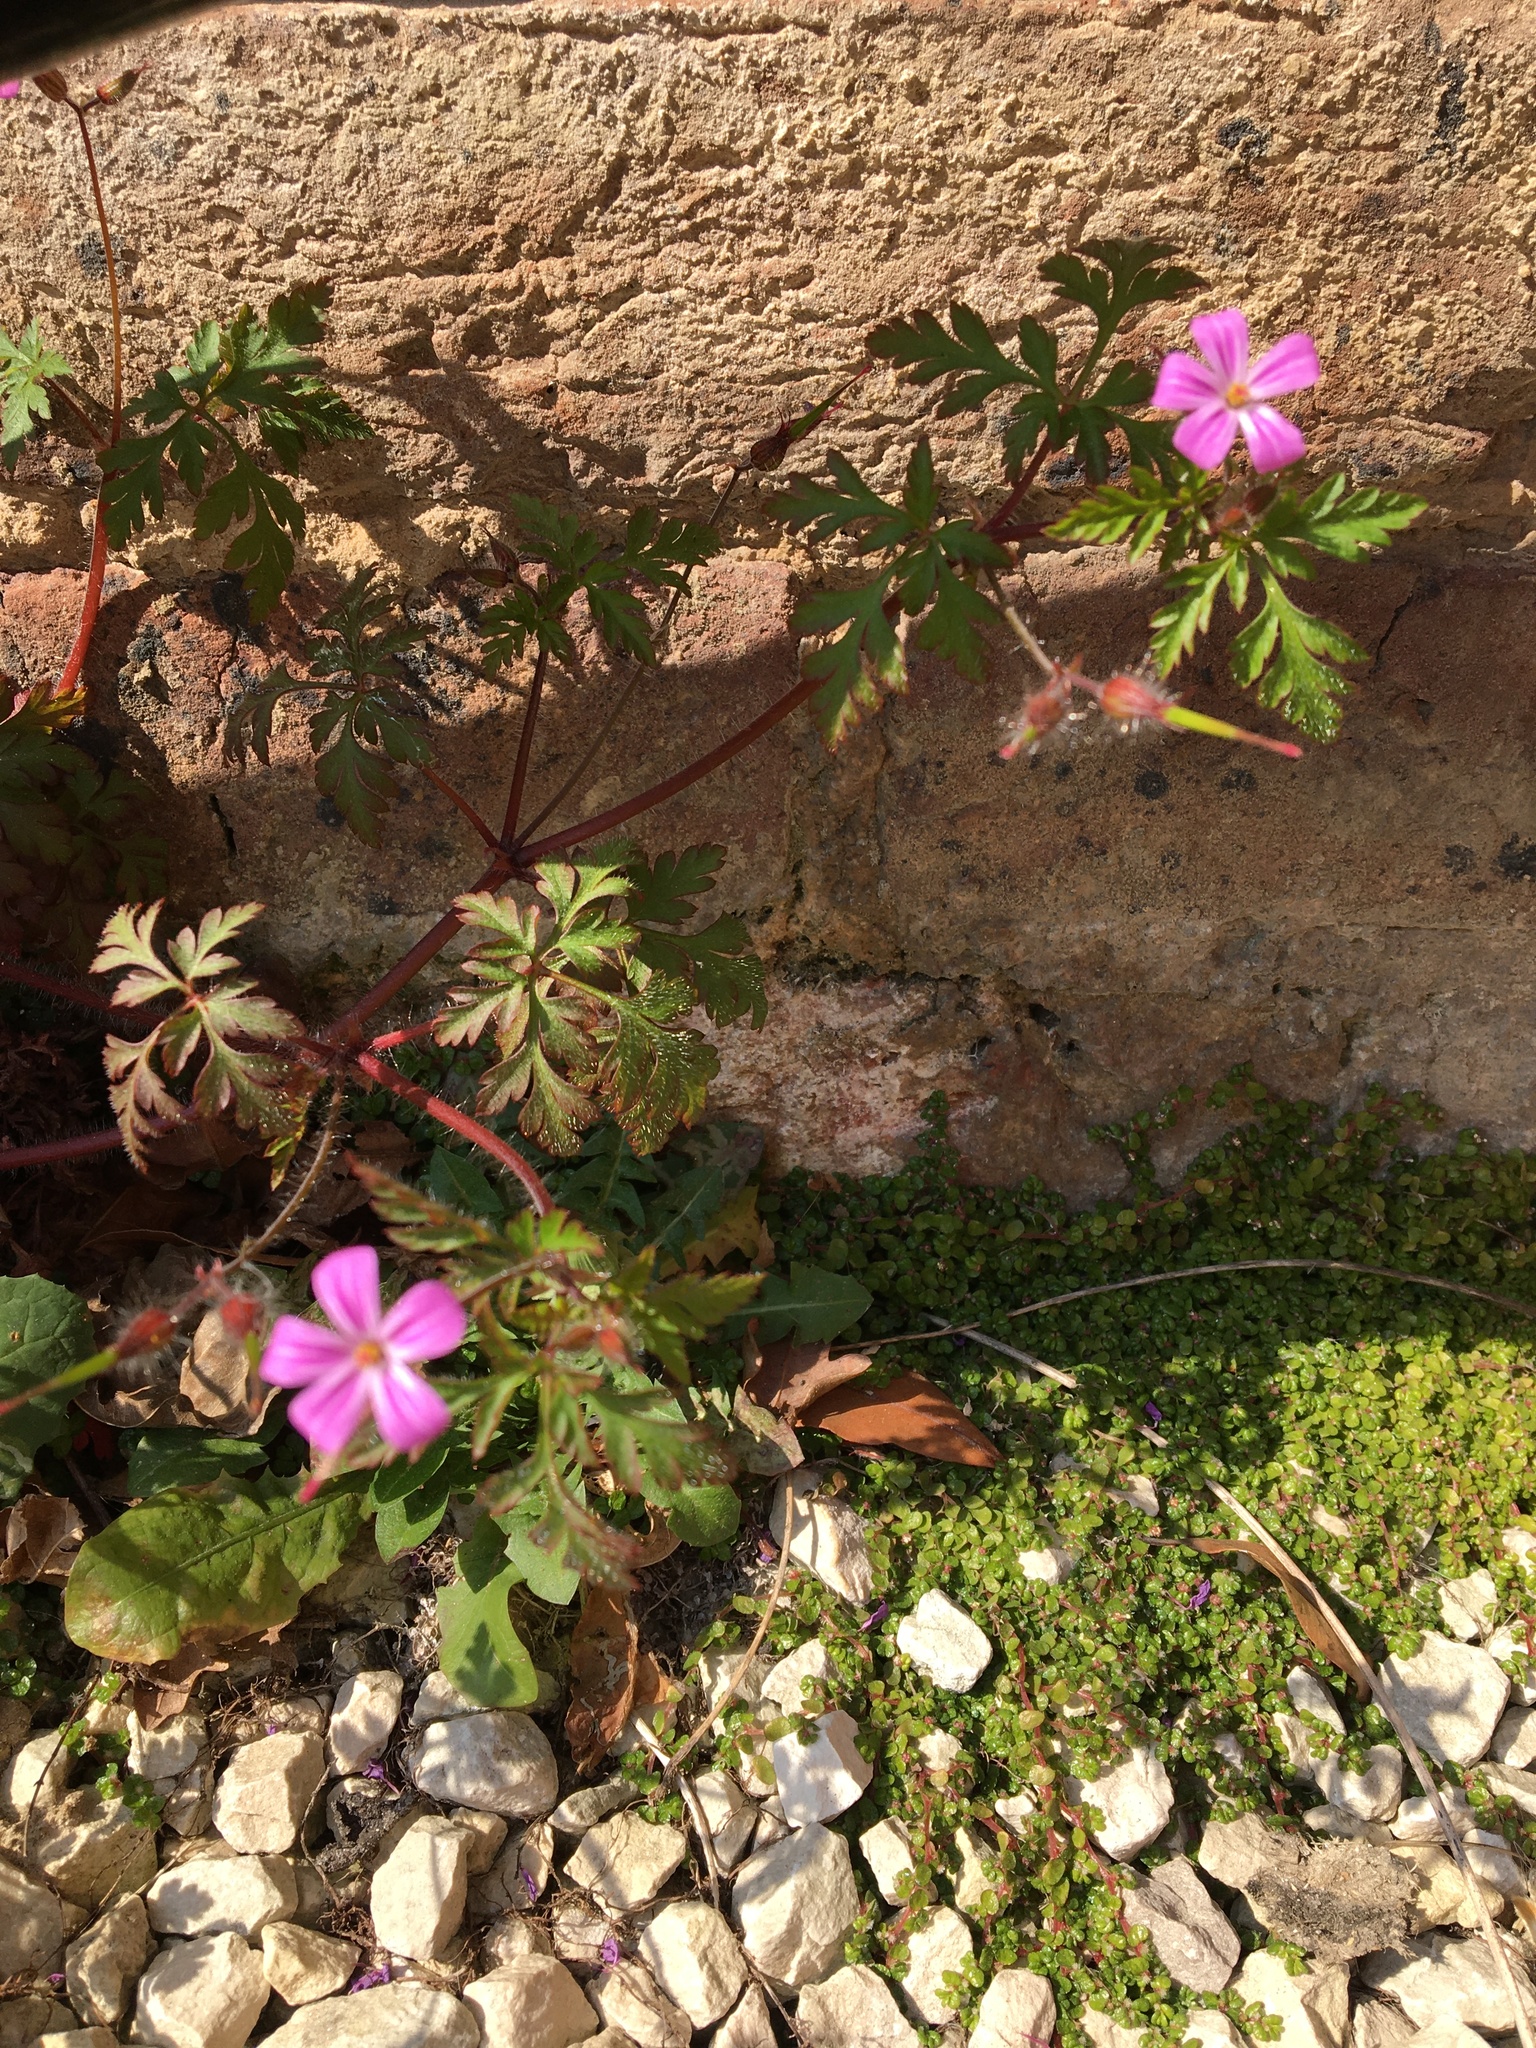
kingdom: Plantae
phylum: Tracheophyta
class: Magnoliopsida
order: Geraniales
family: Geraniaceae
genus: Geranium
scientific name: Geranium robertianum
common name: Herb-robert
